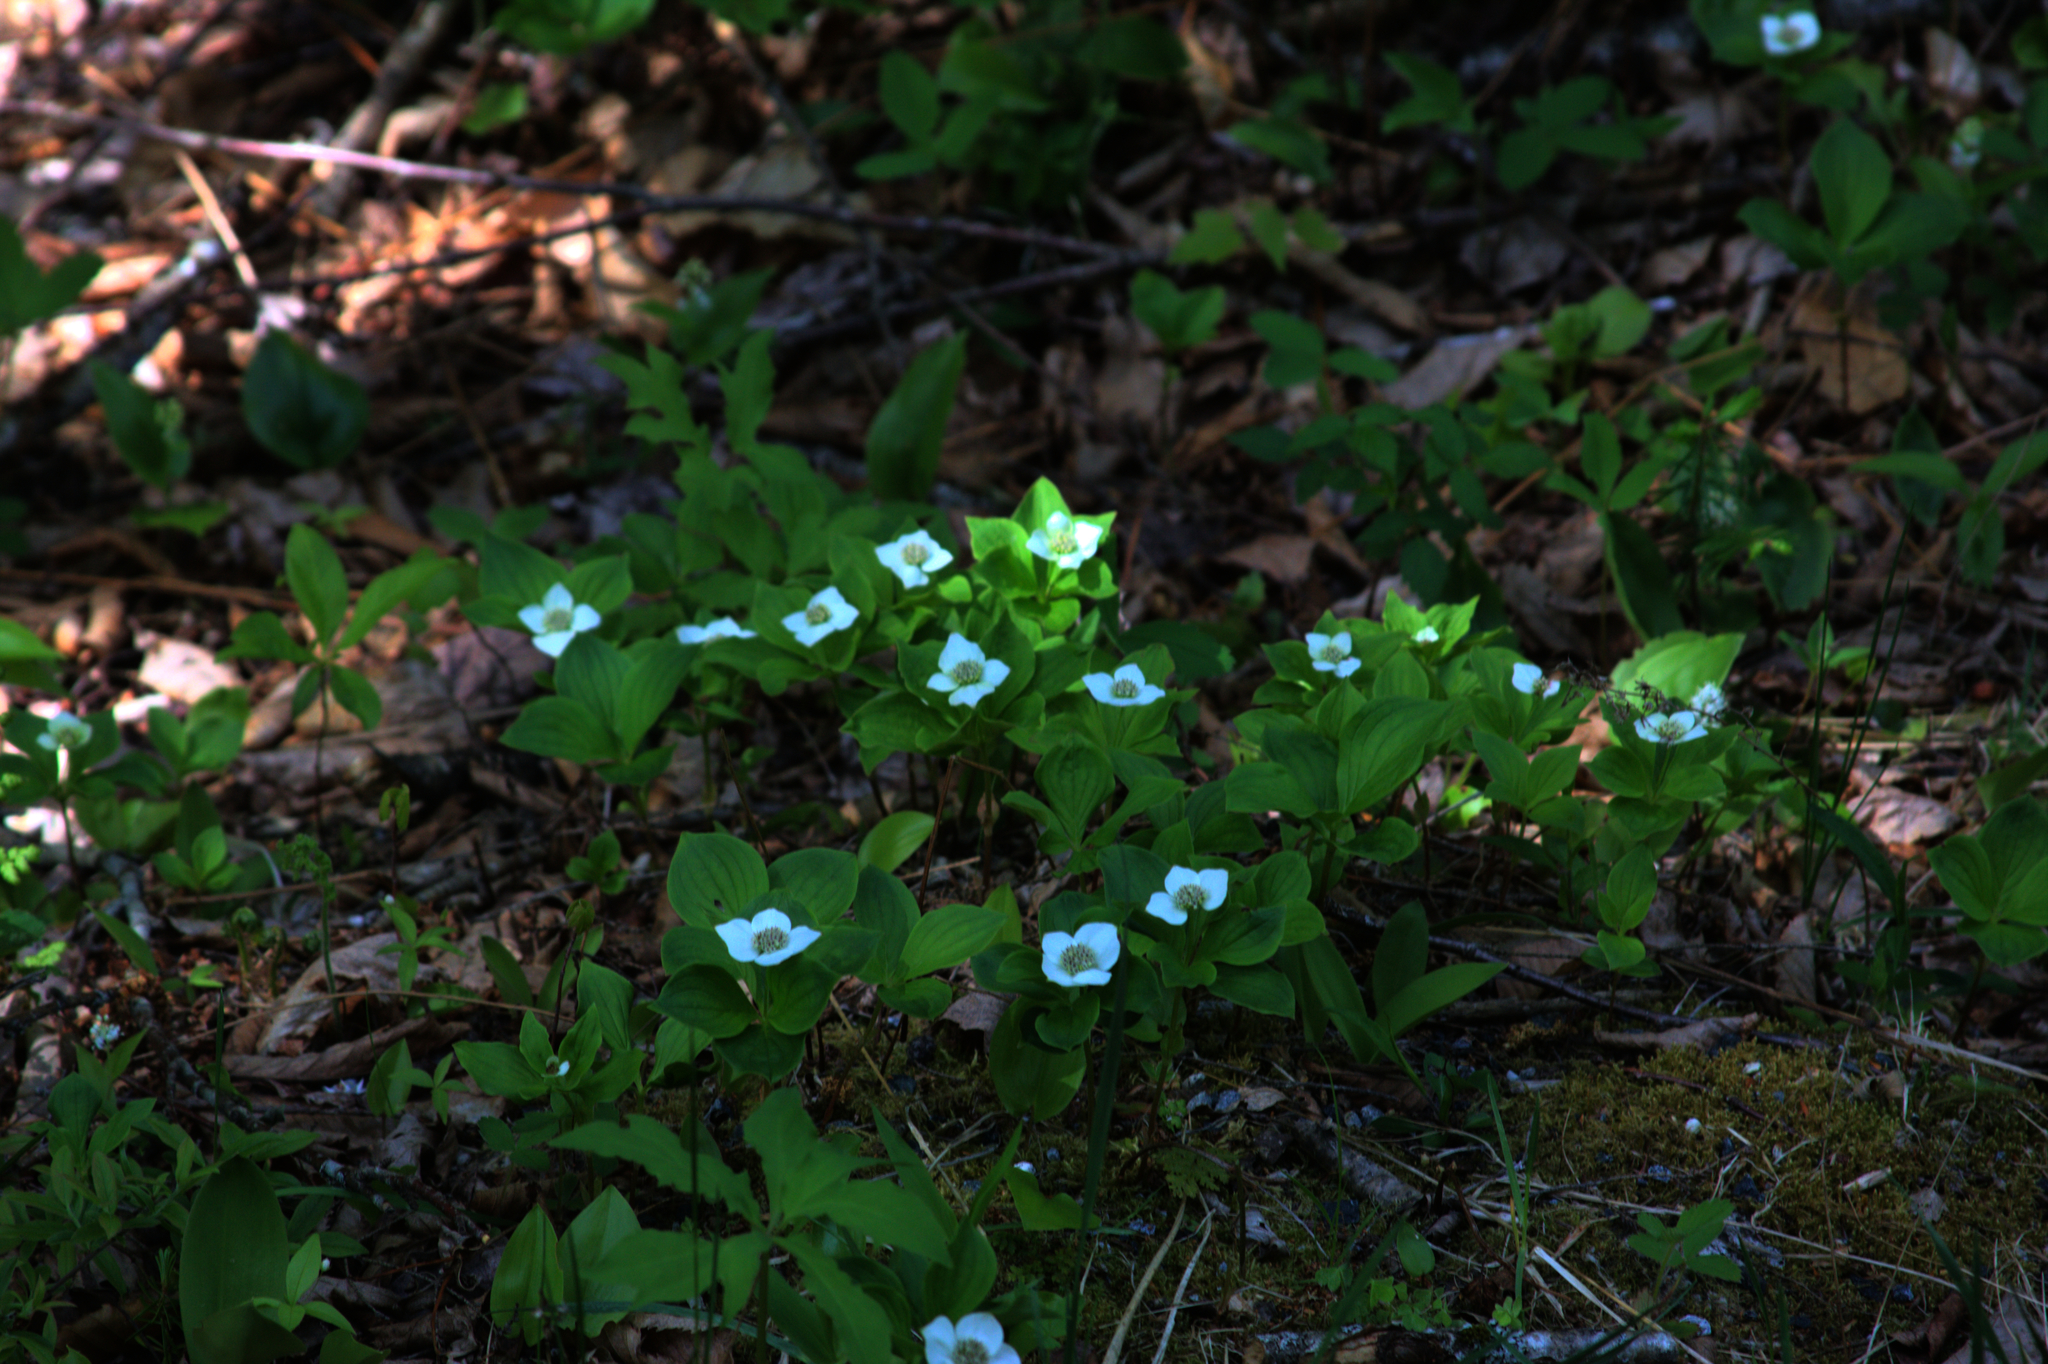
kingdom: Plantae
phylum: Tracheophyta
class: Magnoliopsida
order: Cornales
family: Cornaceae
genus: Cornus
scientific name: Cornus canadensis
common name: Creeping dogwood
